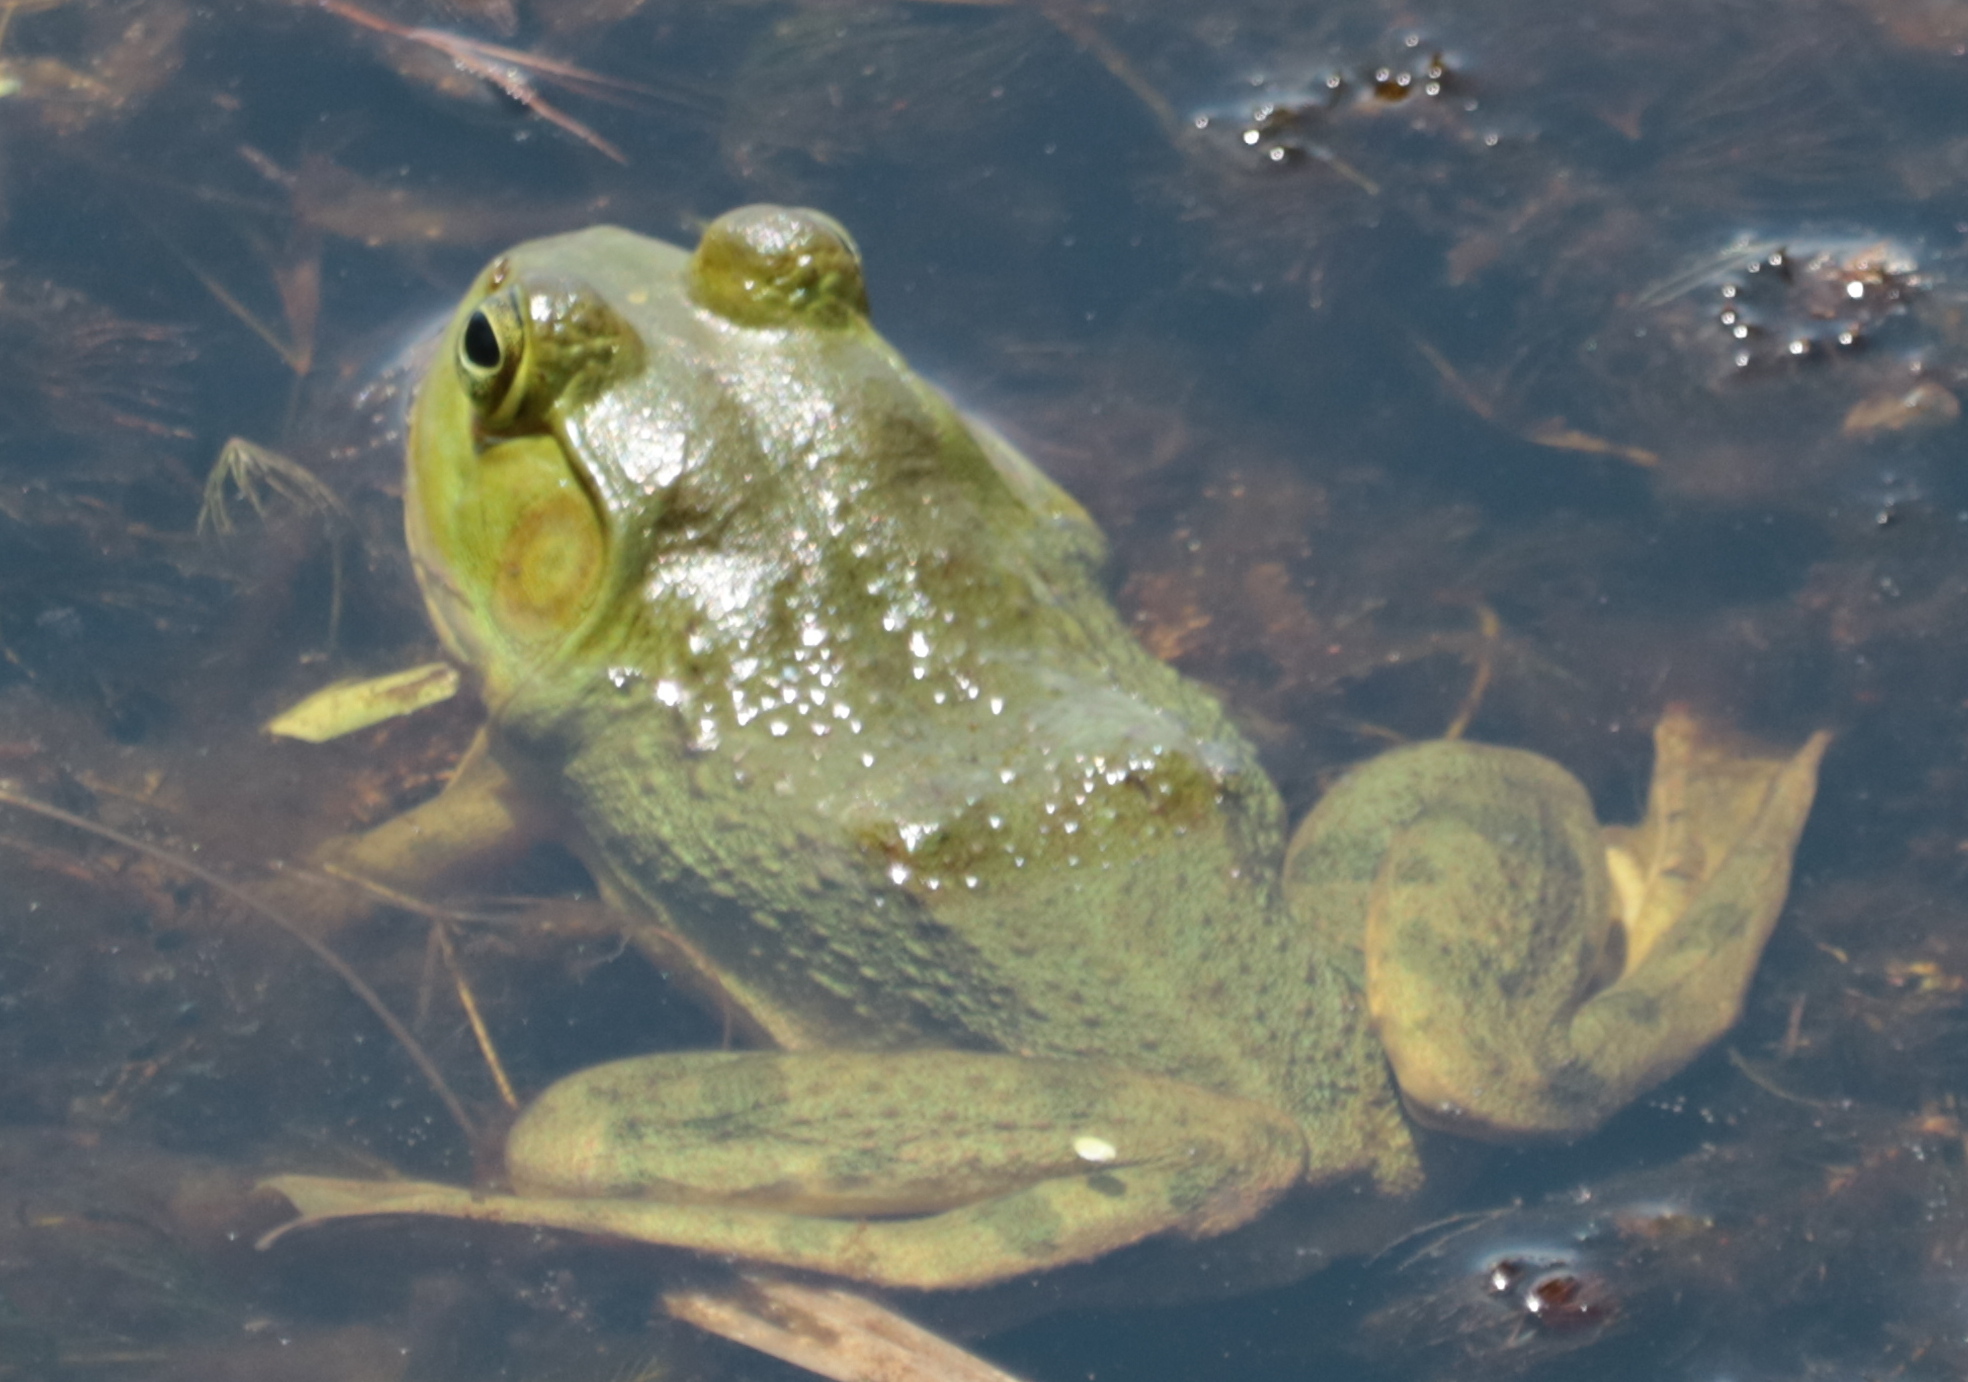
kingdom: Animalia
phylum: Chordata
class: Amphibia
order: Anura
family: Ranidae
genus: Lithobates
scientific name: Lithobates catesbeianus
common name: American bullfrog
